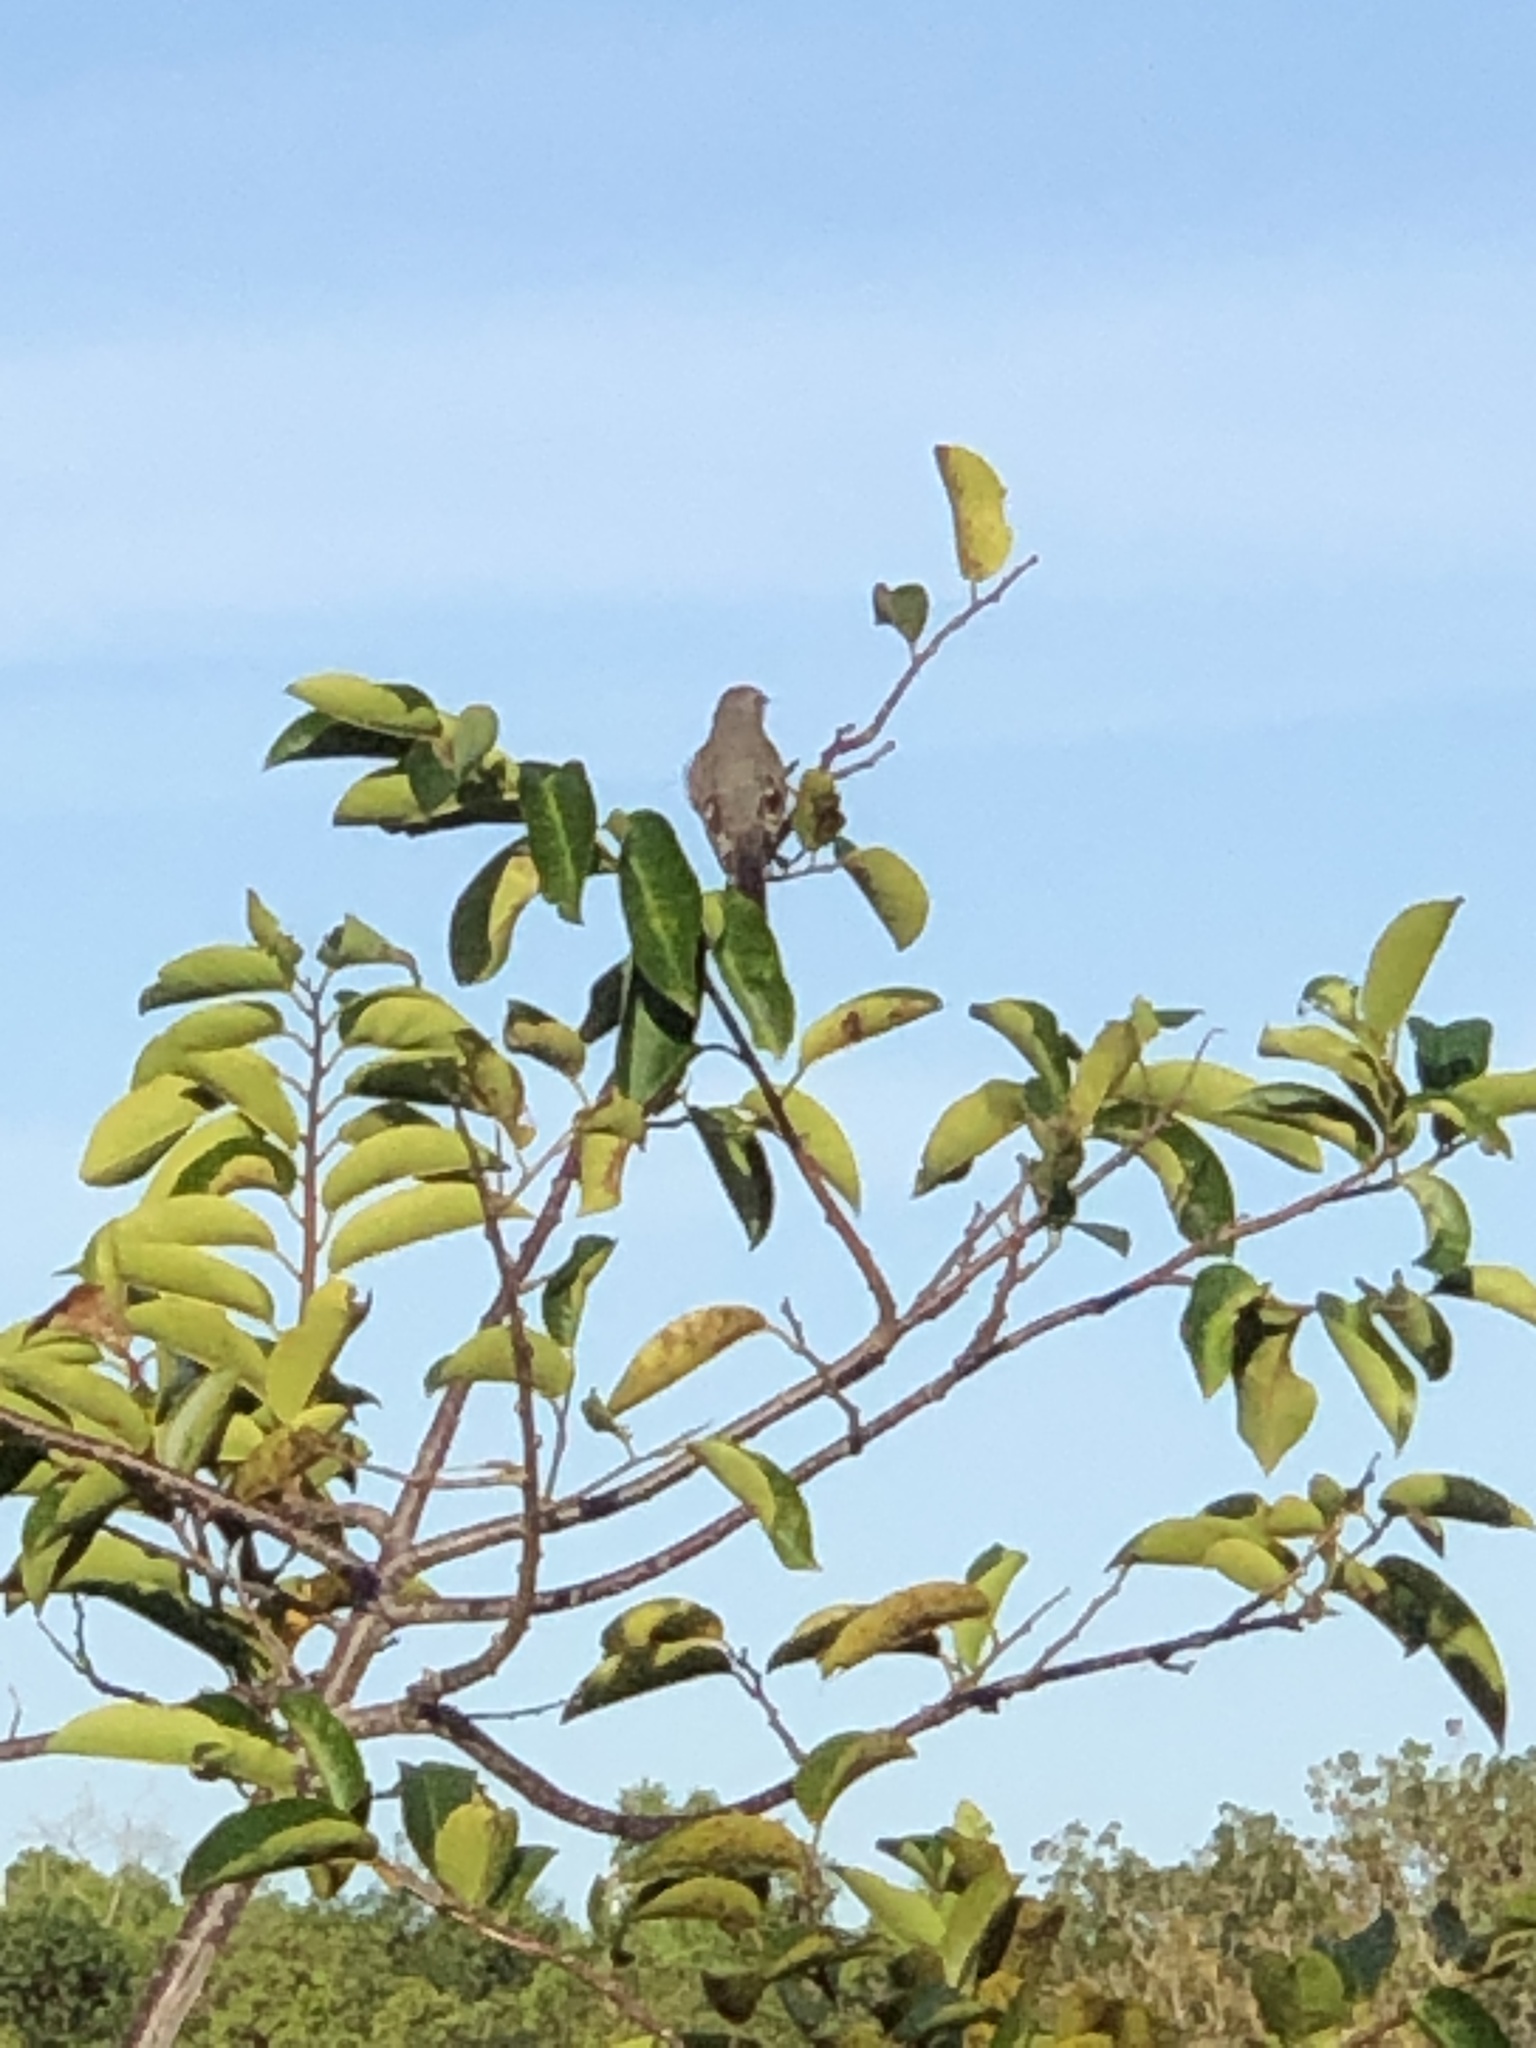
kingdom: Animalia
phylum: Chordata
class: Aves
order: Passeriformes
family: Mimidae
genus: Mimus
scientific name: Mimus polyglottos
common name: Northern mockingbird
